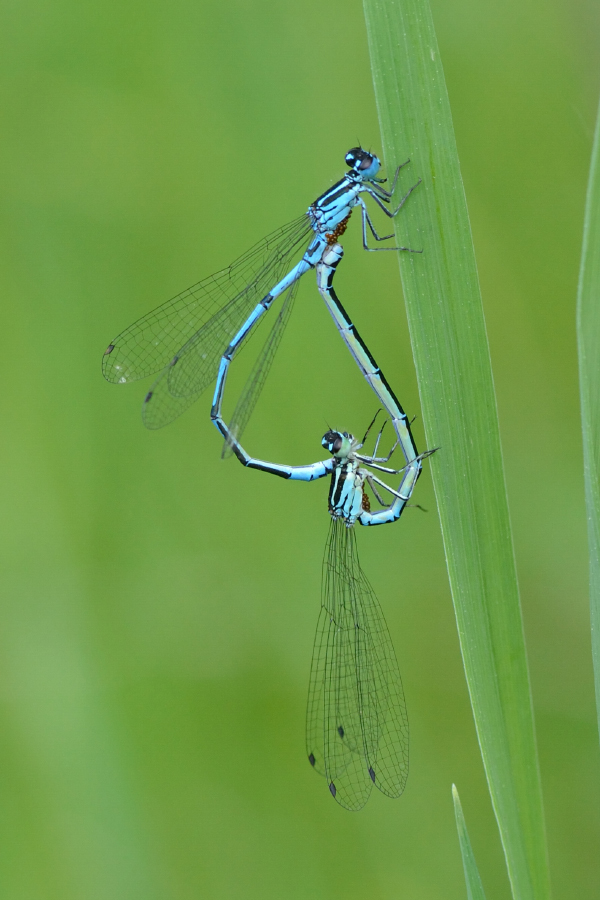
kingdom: Animalia
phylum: Arthropoda
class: Insecta
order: Odonata
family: Coenagrionidae
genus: Coenagrion
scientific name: Coenagrion puella
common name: Azure damselfly
